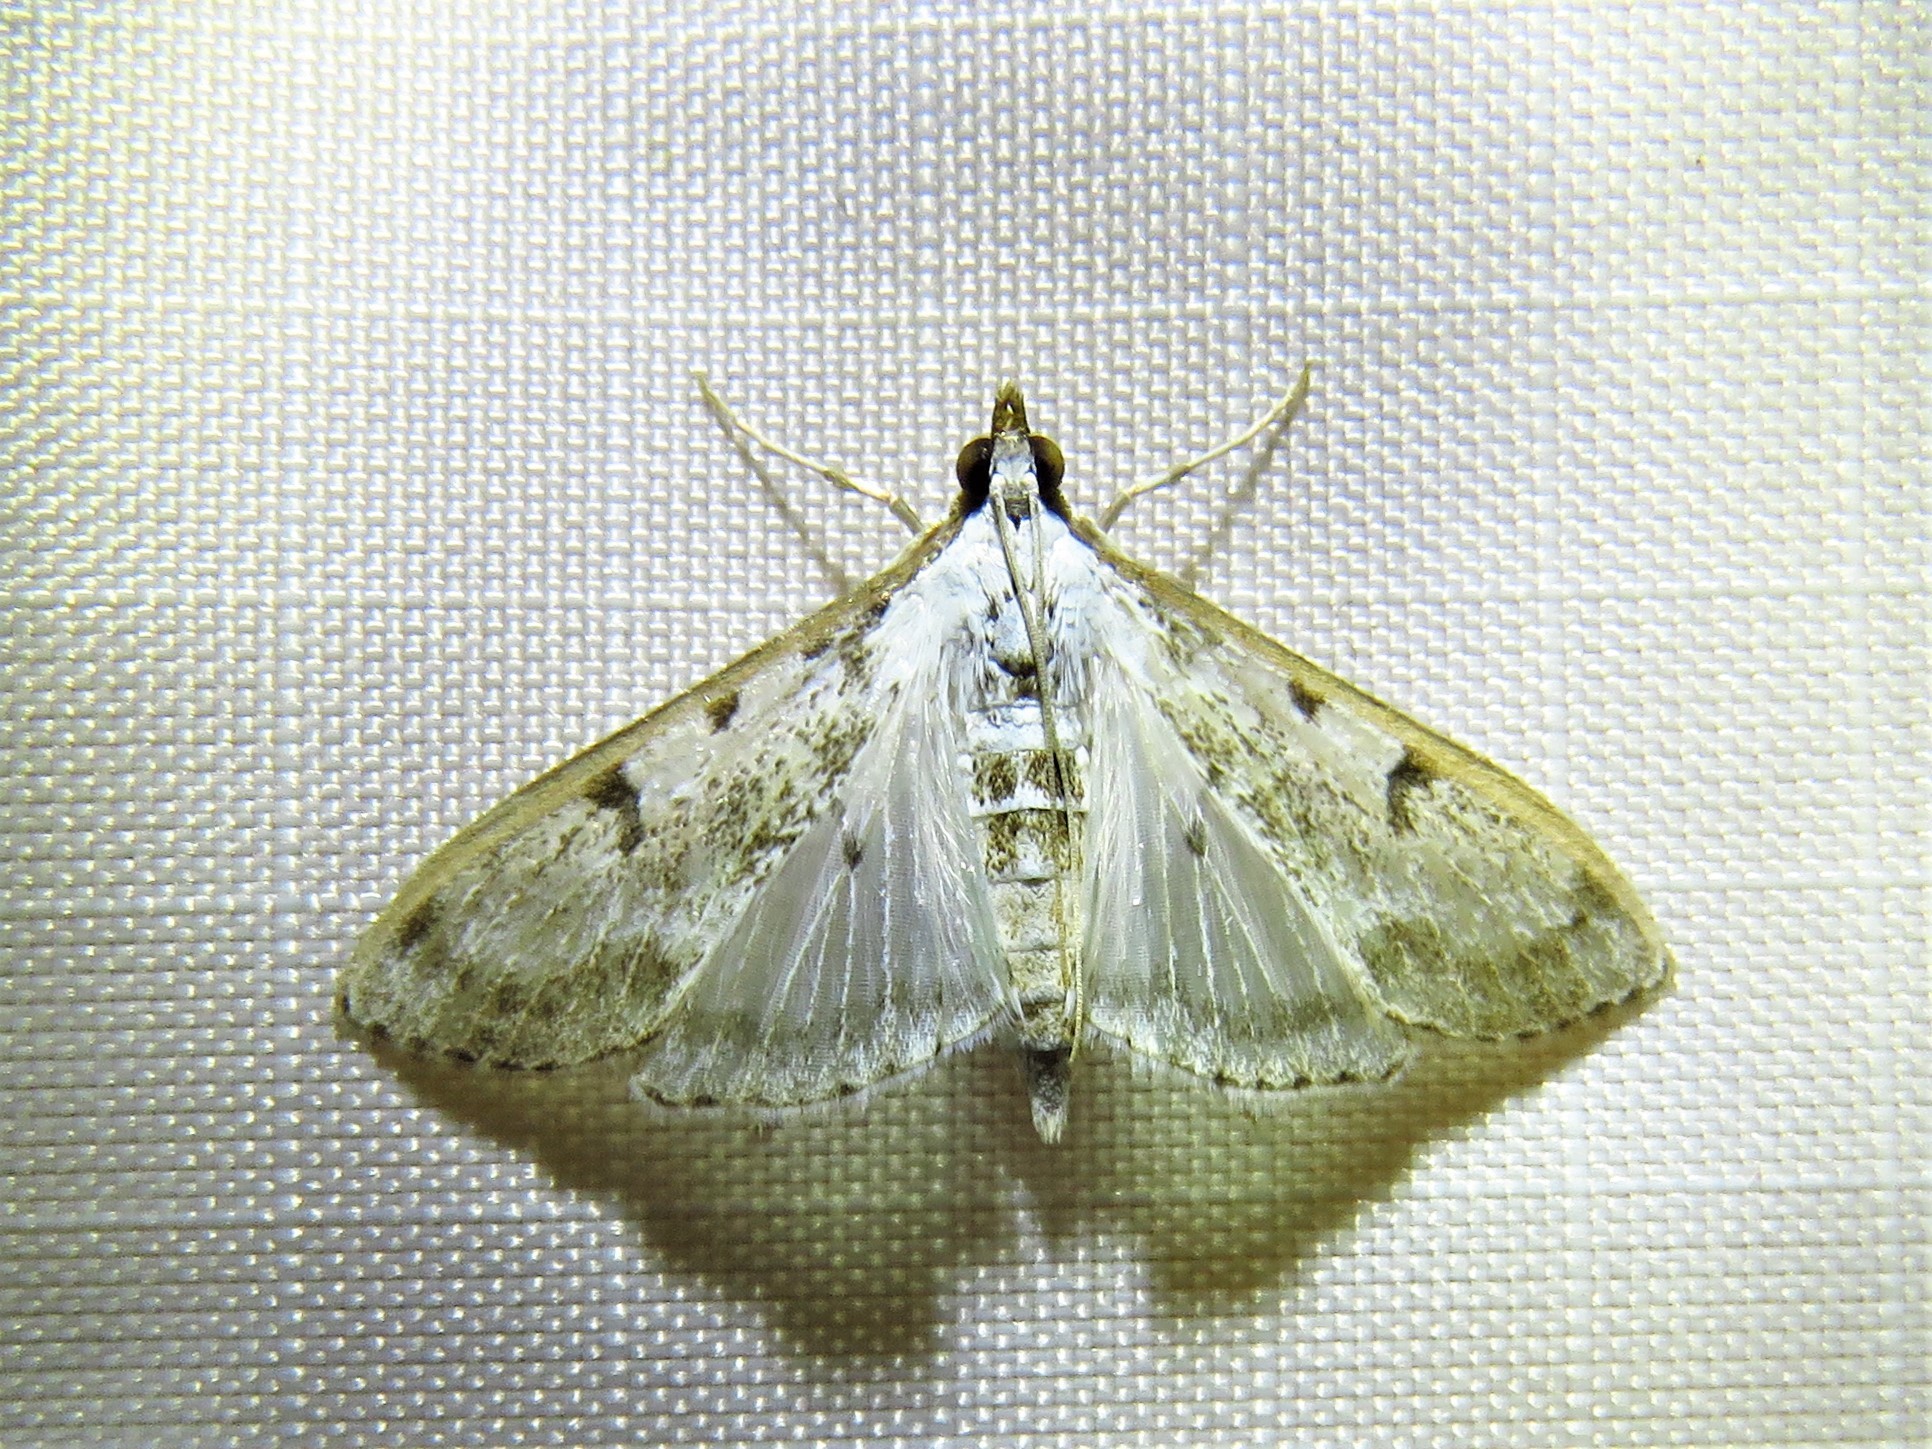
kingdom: Animalia
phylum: Arthropoda
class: Insecta
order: Lepidoptera
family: Crambidae
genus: Palpita
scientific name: Palpita gracilalis
